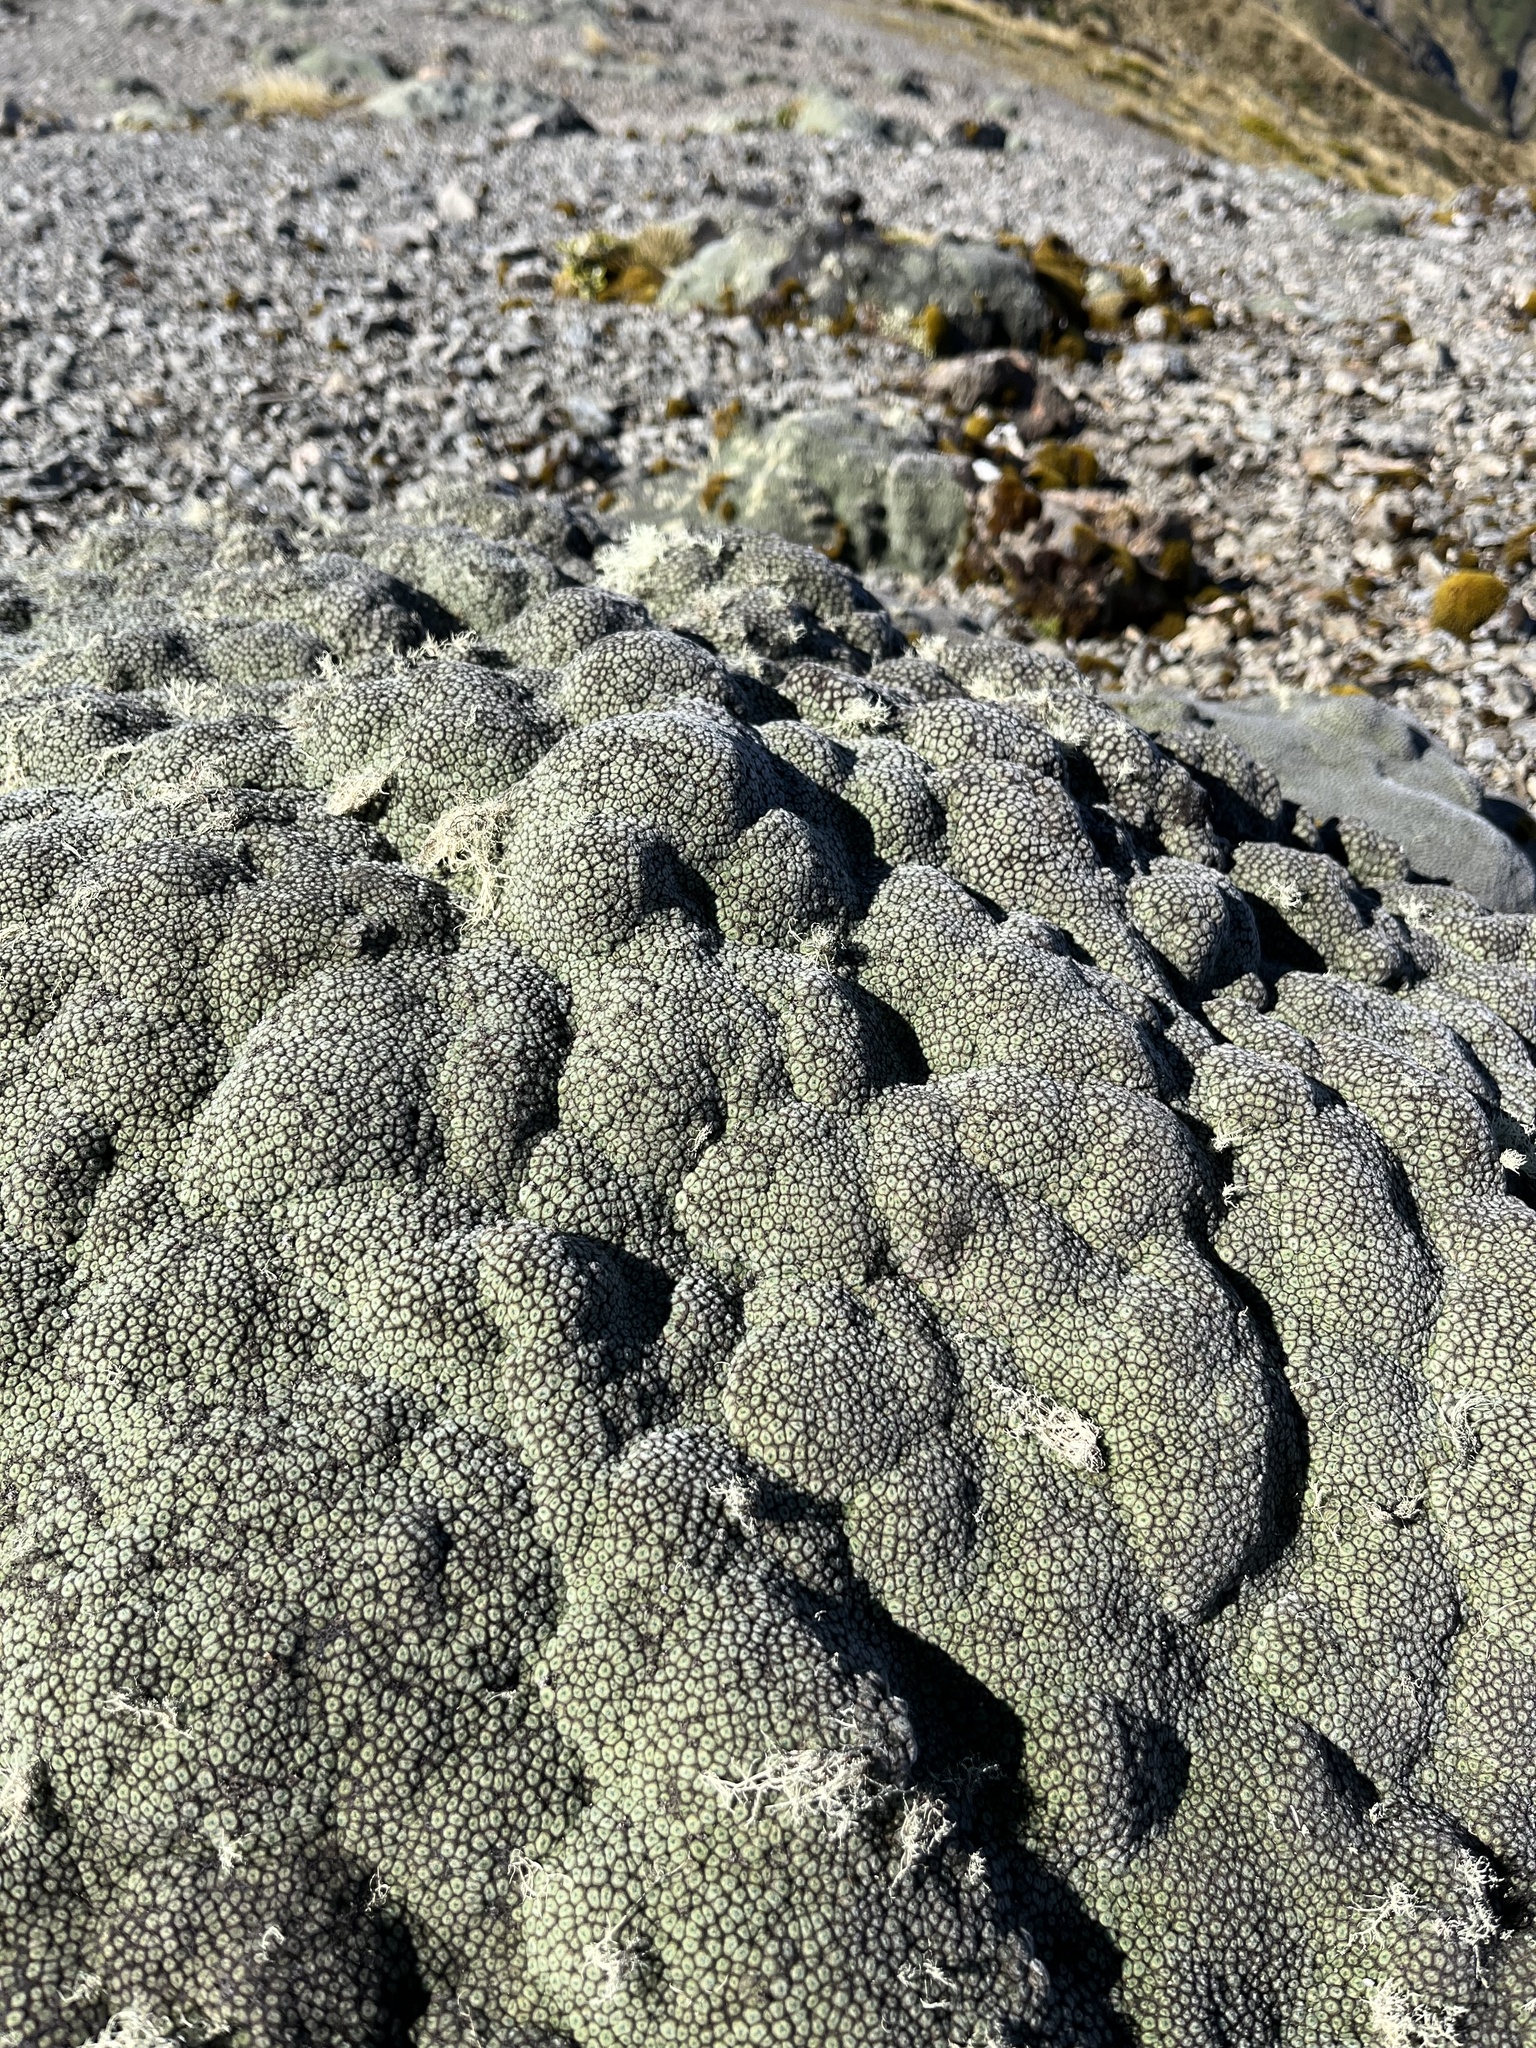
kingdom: Plantae
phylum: Tracheophyta
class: Magnoliopsida
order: Asterales
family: Asteraceae
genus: Raoulia
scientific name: Raoulia rubra
